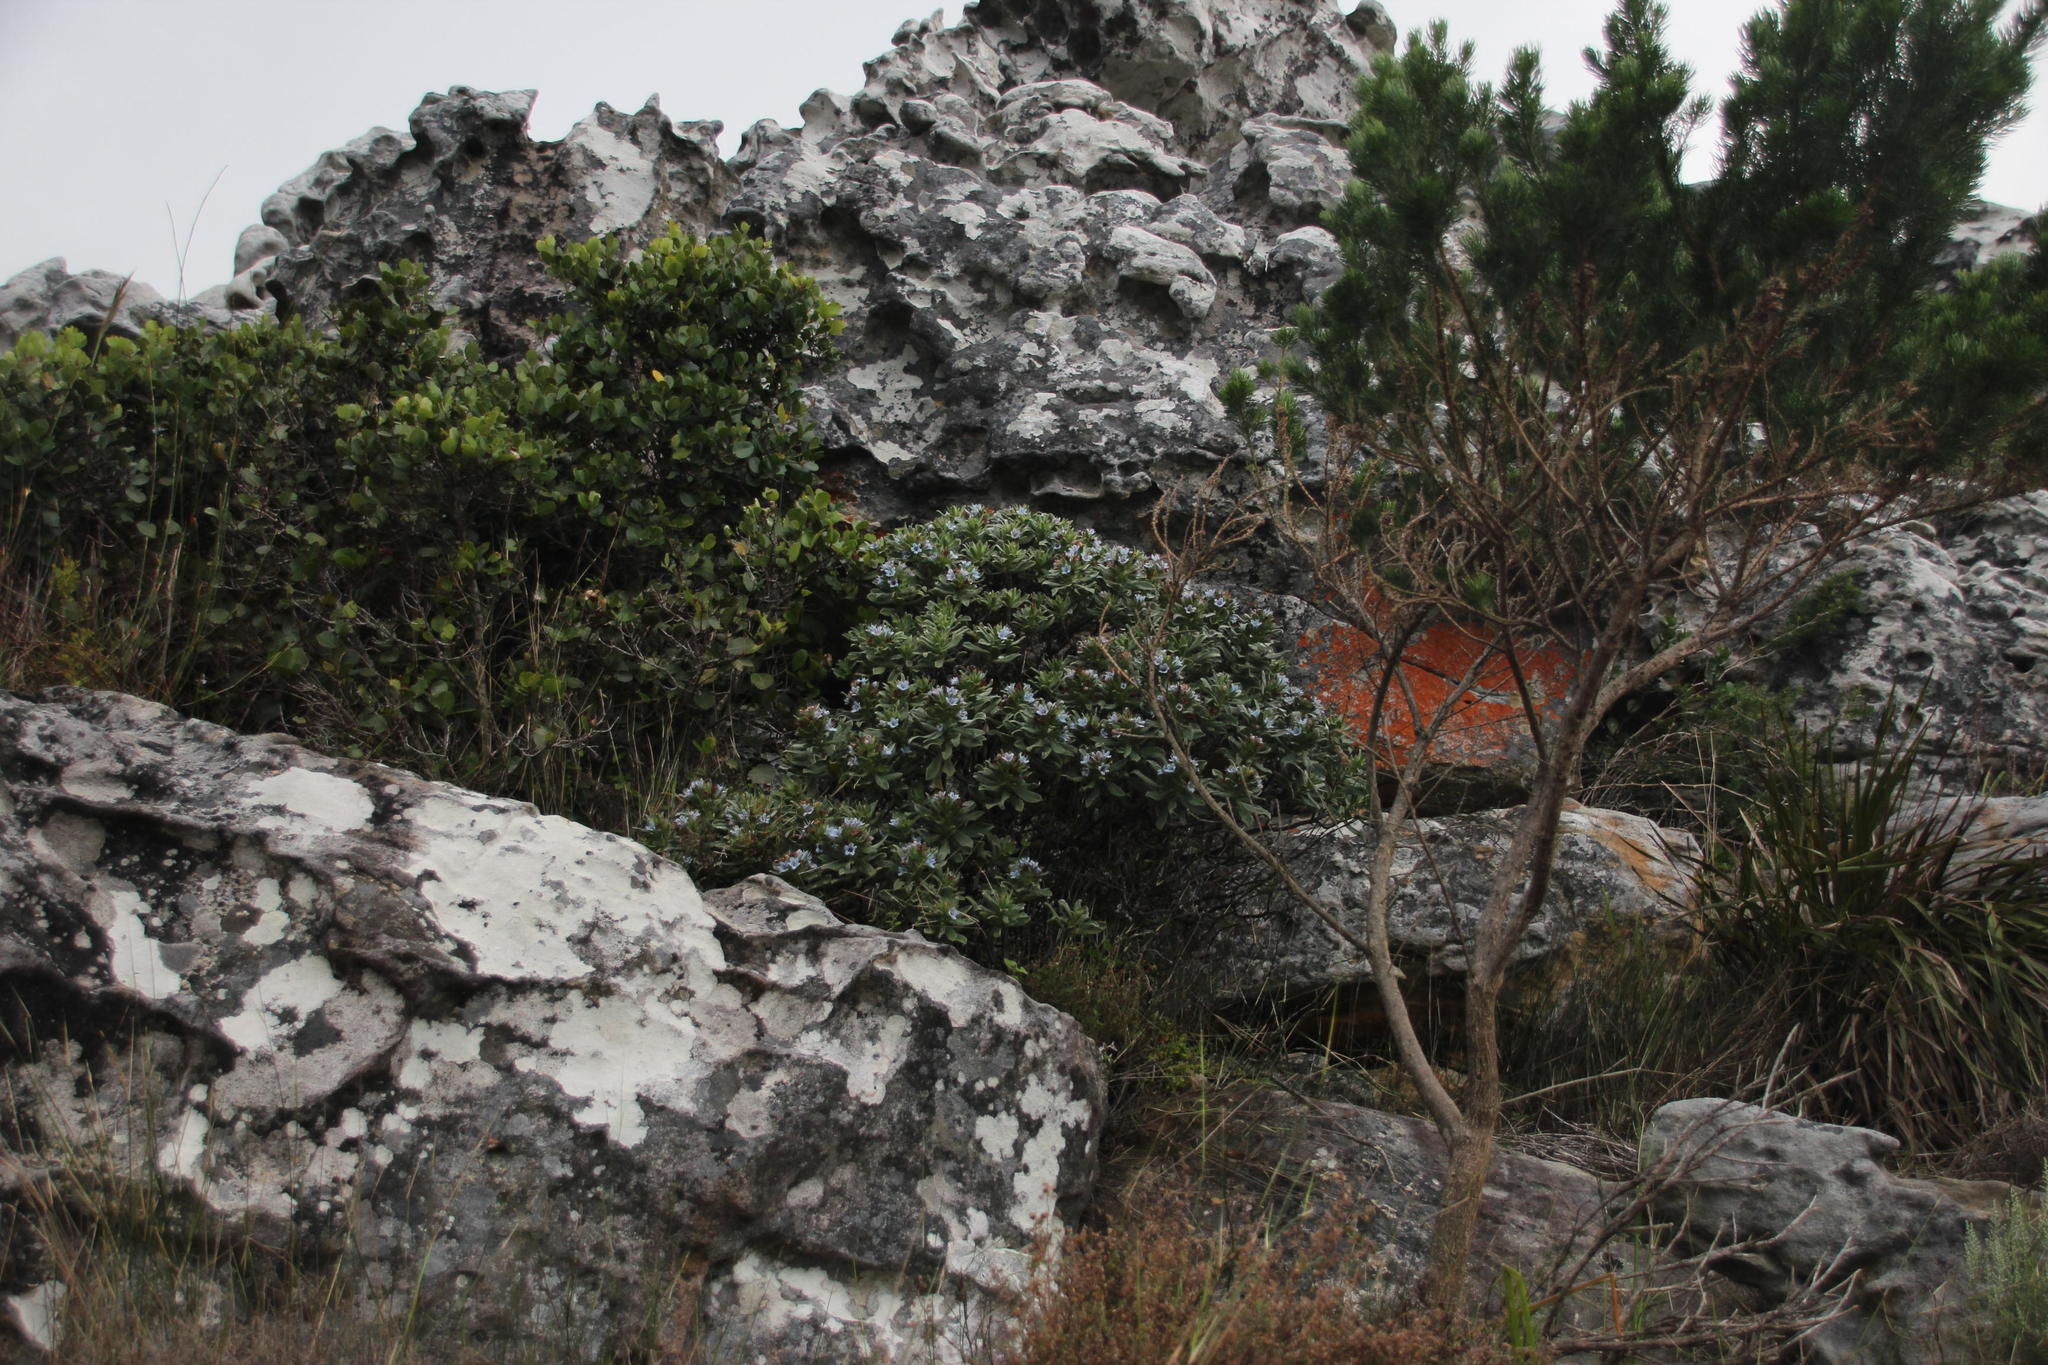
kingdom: Plantae
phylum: Tracheophyta
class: Magnoliopsida
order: Boraginales
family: Boraginaceae
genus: Lobostemon
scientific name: Lobostemon montanus
